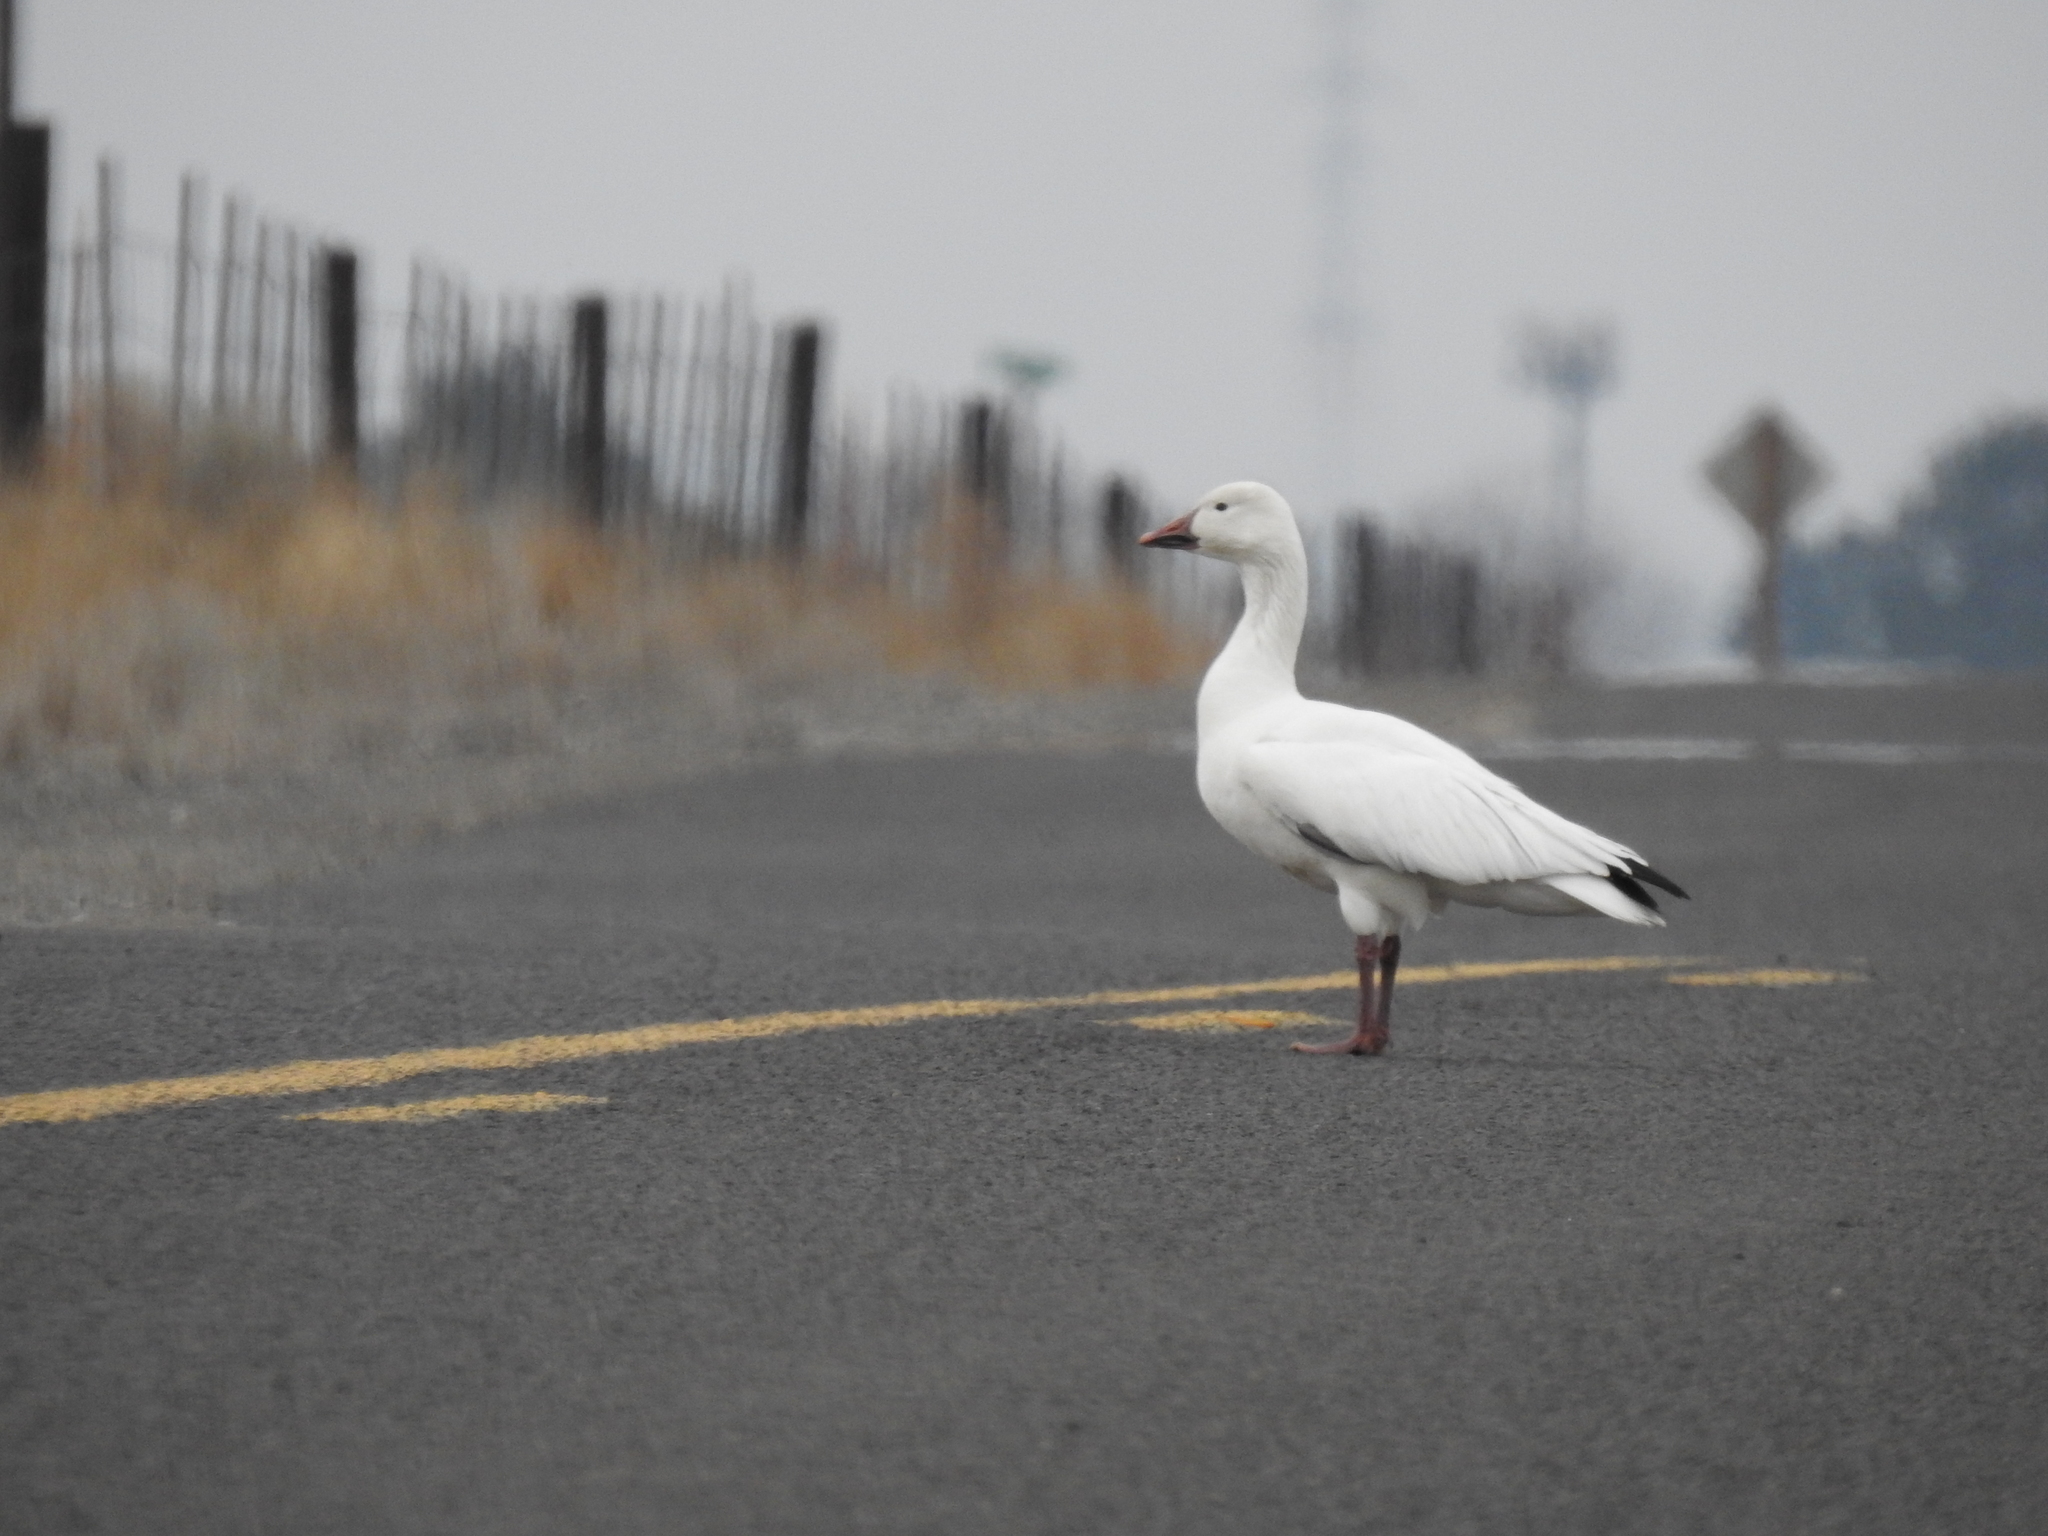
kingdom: Animalia
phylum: Chordata
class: Aves
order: Anseriformes
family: Anatidae
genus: Anser
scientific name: Anser caerulescens
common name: Snow goose
